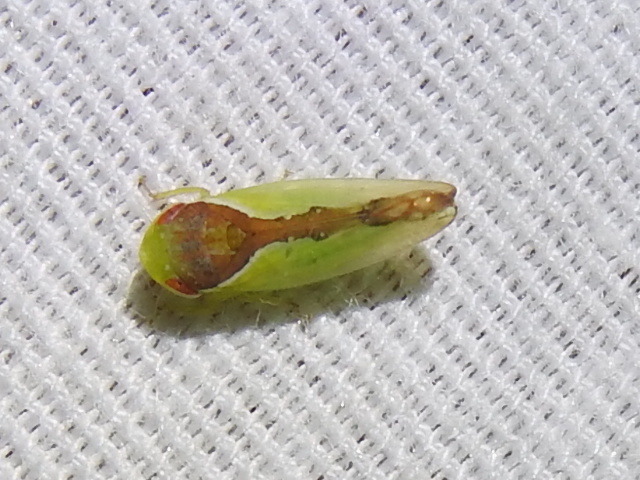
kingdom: Animalia
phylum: Arthropoda
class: Insecta
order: Hemiptera
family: Cicadellidae
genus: Omansobara ing
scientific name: Omansobara ing Omansobara palliolata
